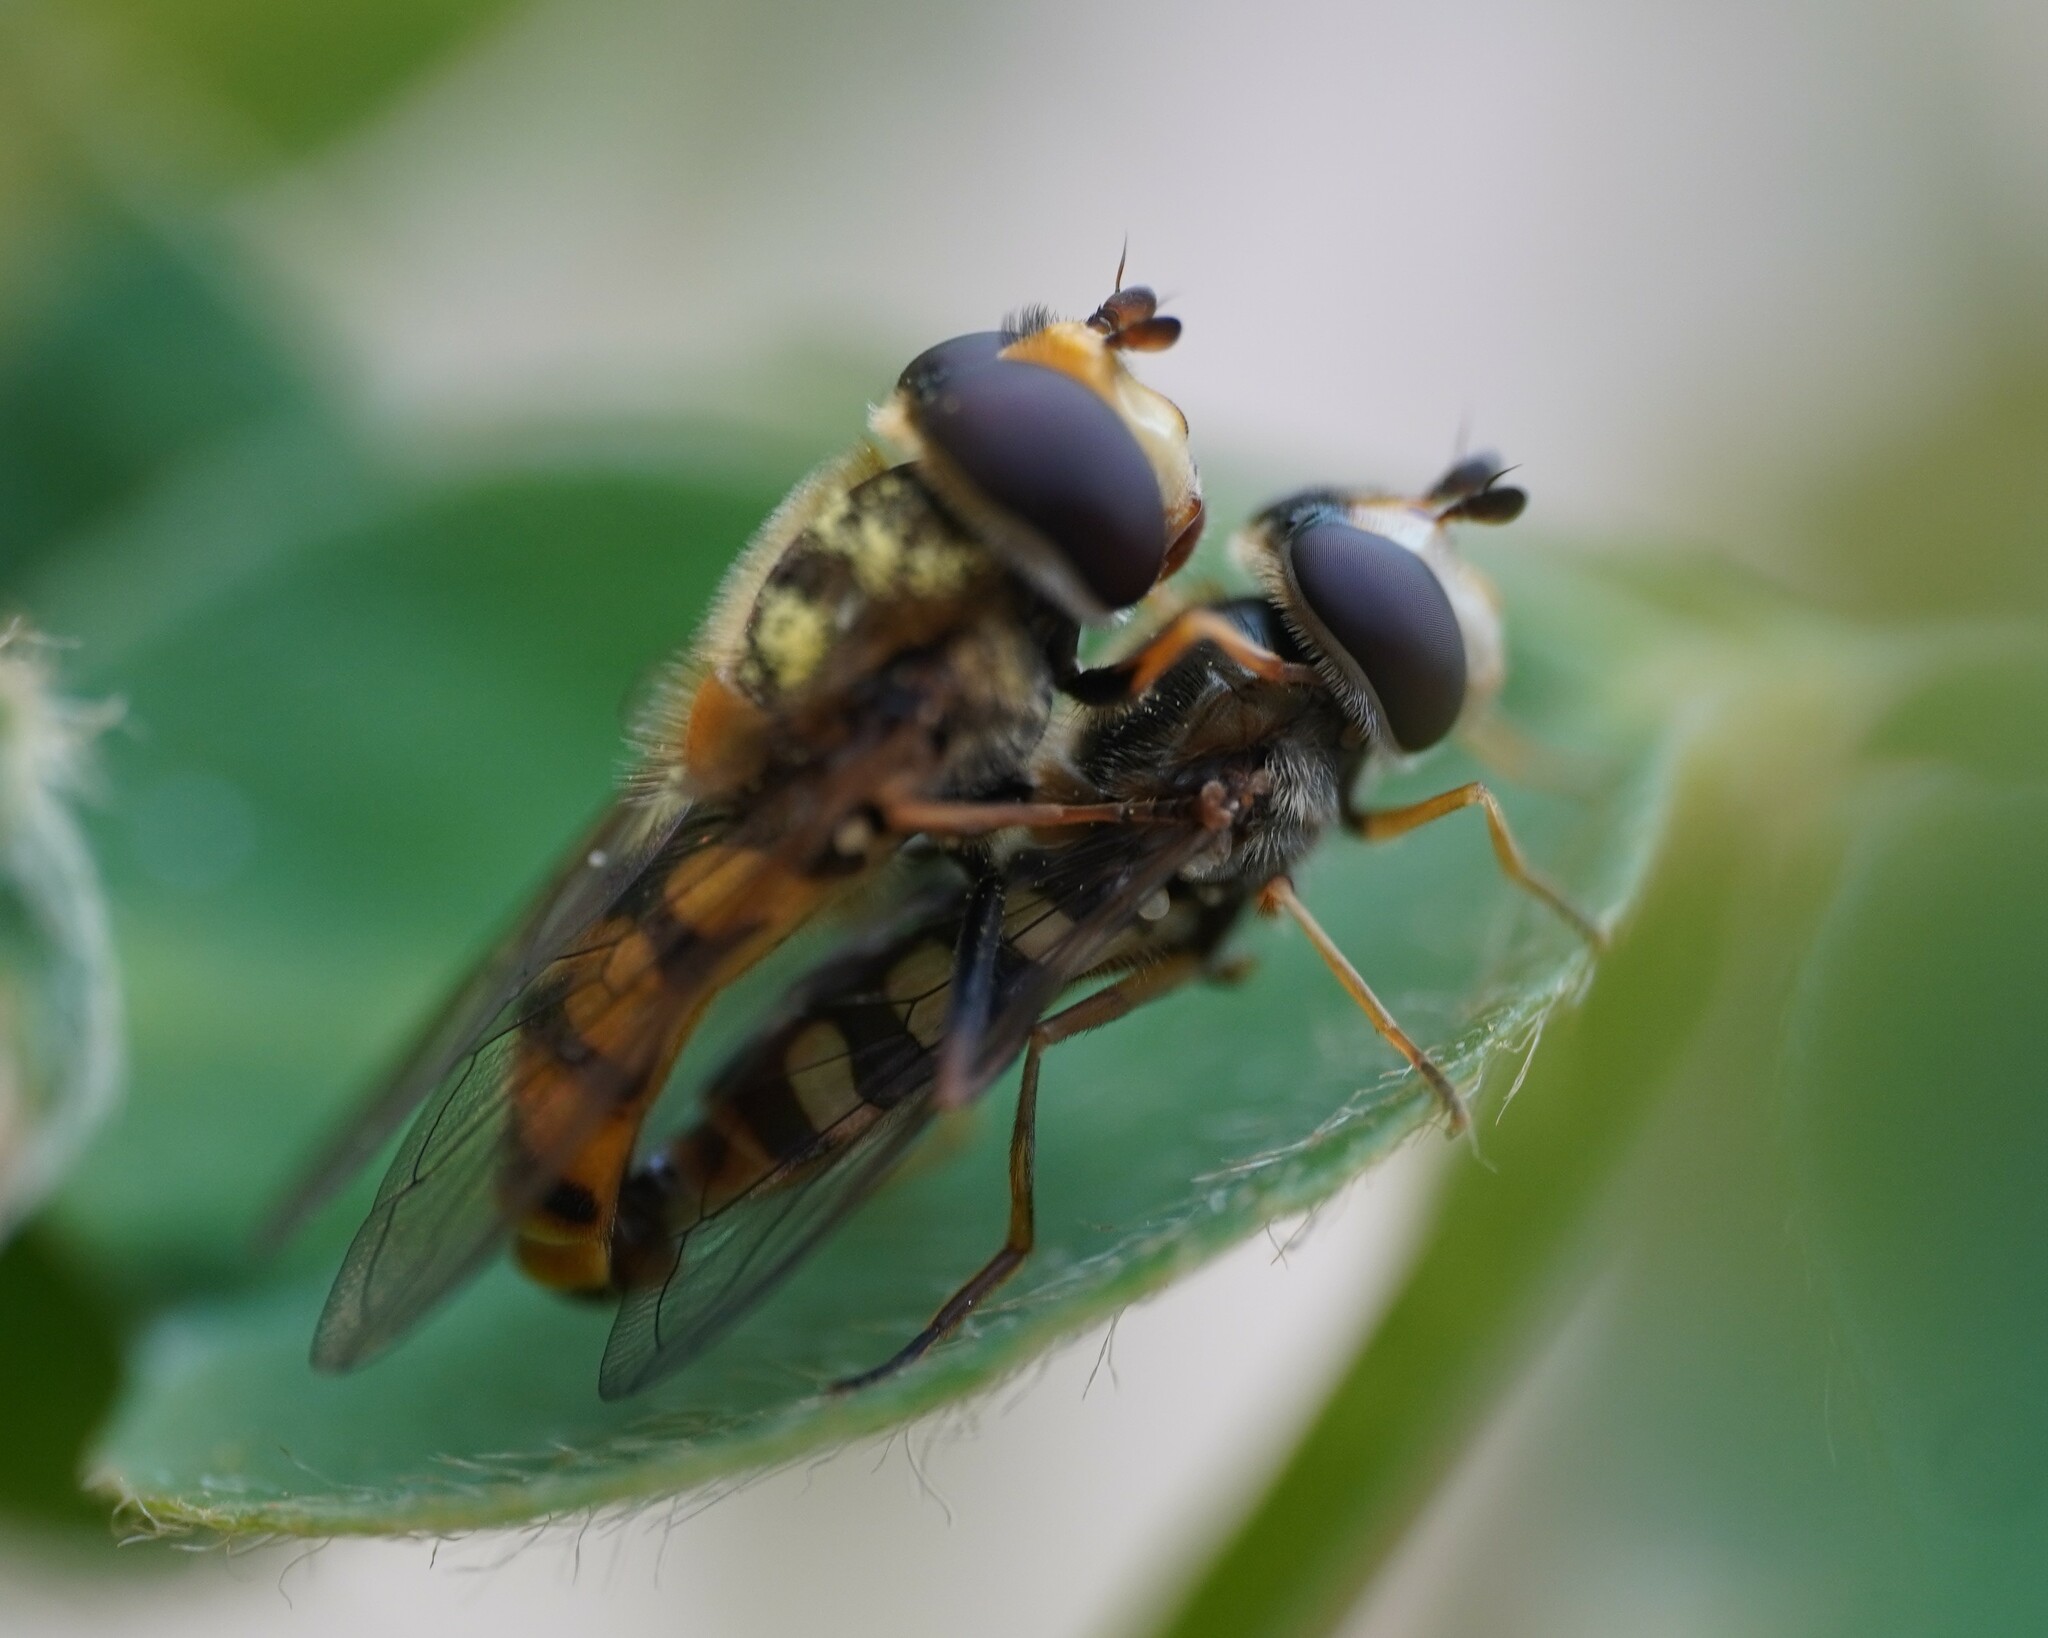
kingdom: Animalia
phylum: Arthropoda
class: Insecta
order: Diptera
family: Syrphidae
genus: Eupeodes
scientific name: Eupeodes corollae
